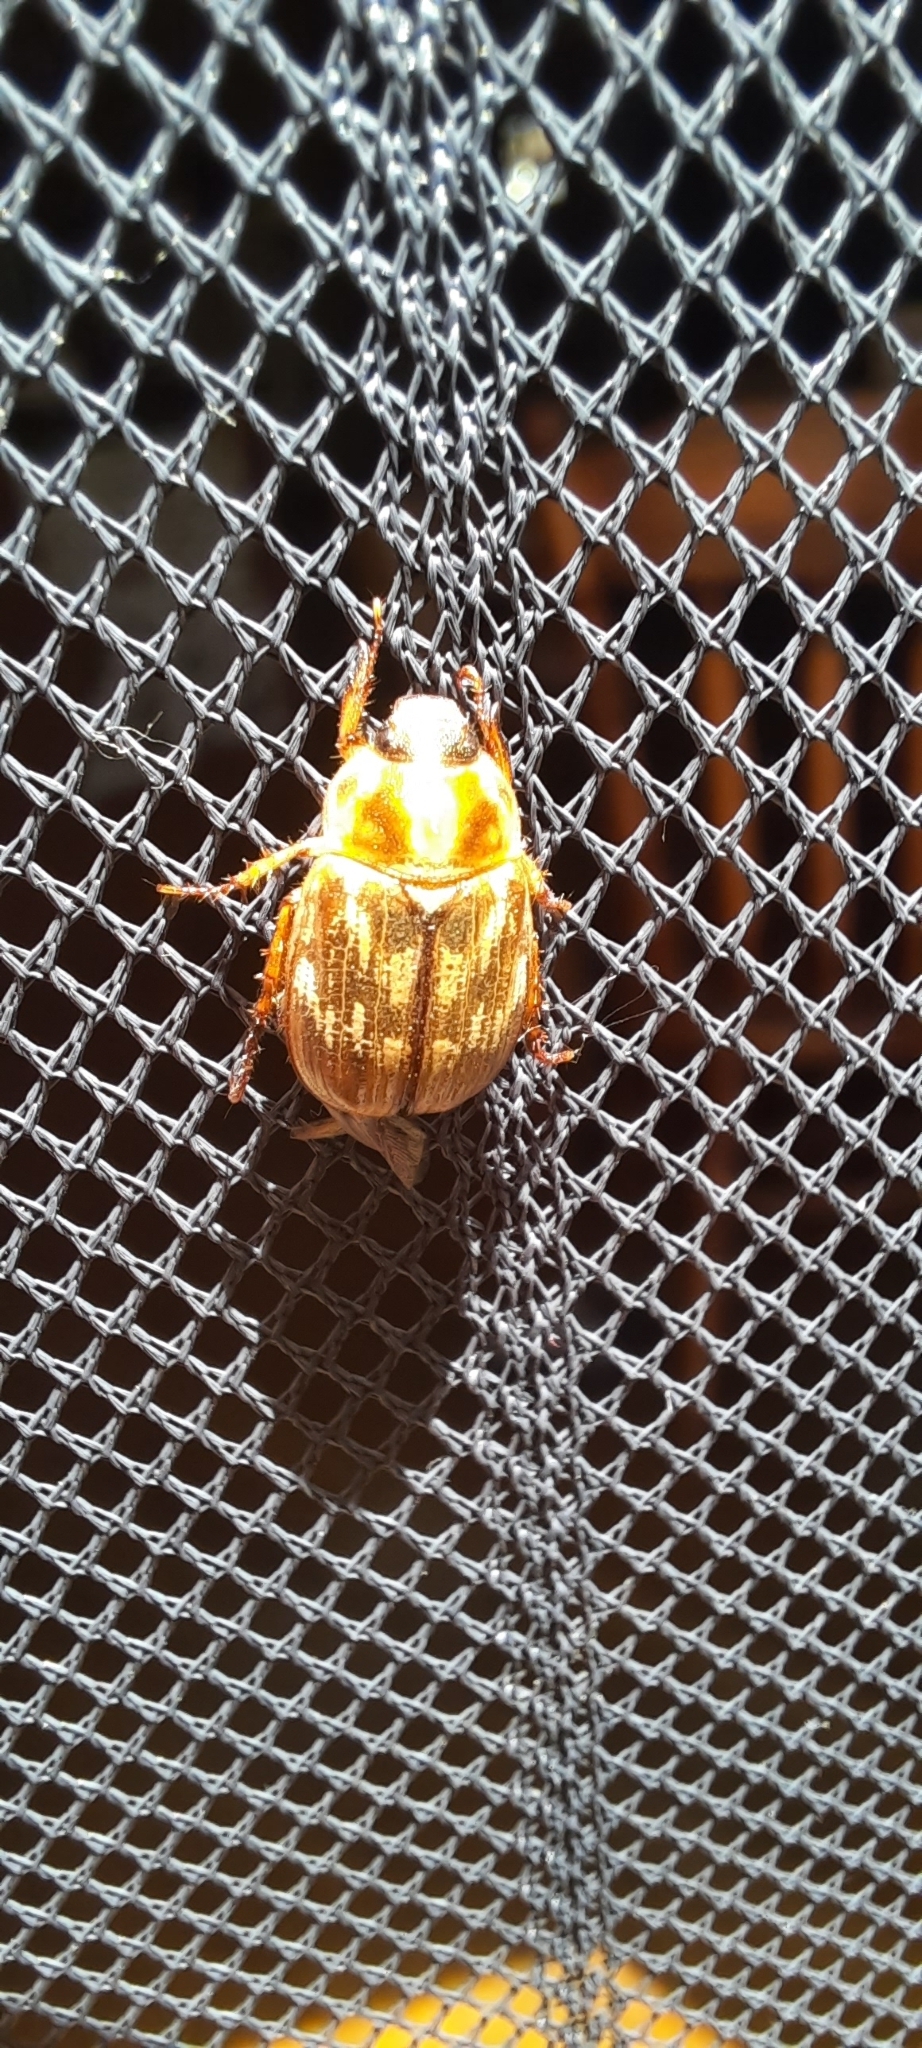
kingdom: Animalia
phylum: Arthropoda
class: Insecta
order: Coleoptera
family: Scarabaeidae
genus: Exomala
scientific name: Exomala orientalis
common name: Oriental beetle
